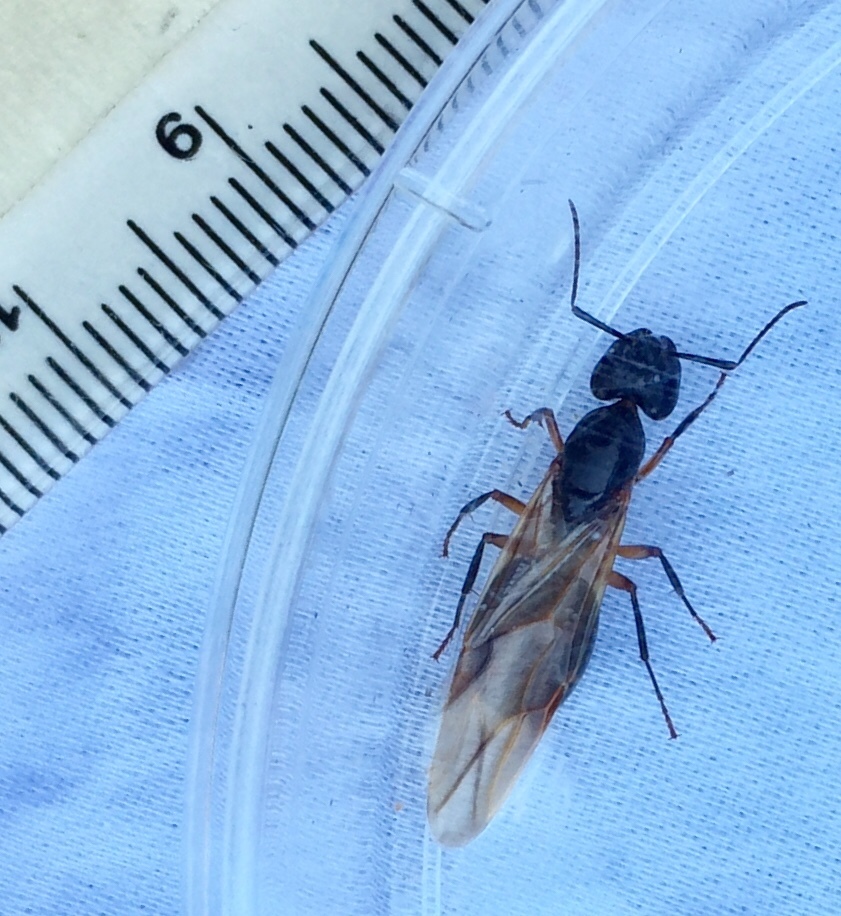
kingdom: Animalia
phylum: Arthropoda
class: Insecta
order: Hymenoptera
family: Formicidae
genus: Camponotus
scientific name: Camponotus chromaiodes
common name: Red carpenter ant
